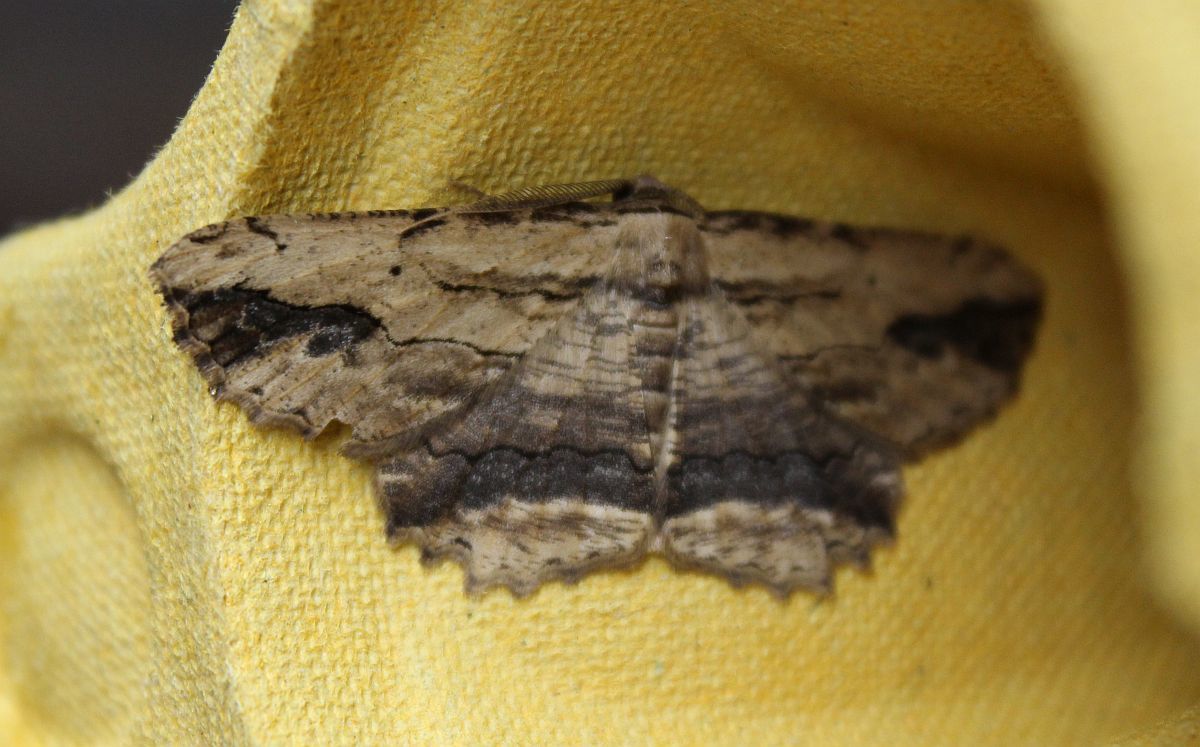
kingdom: Animalia
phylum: Arthropoda
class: Insecta
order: Lepidoptera
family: Geometridae
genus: Menophra
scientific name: Menophra abruptaria
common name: Waved umber
